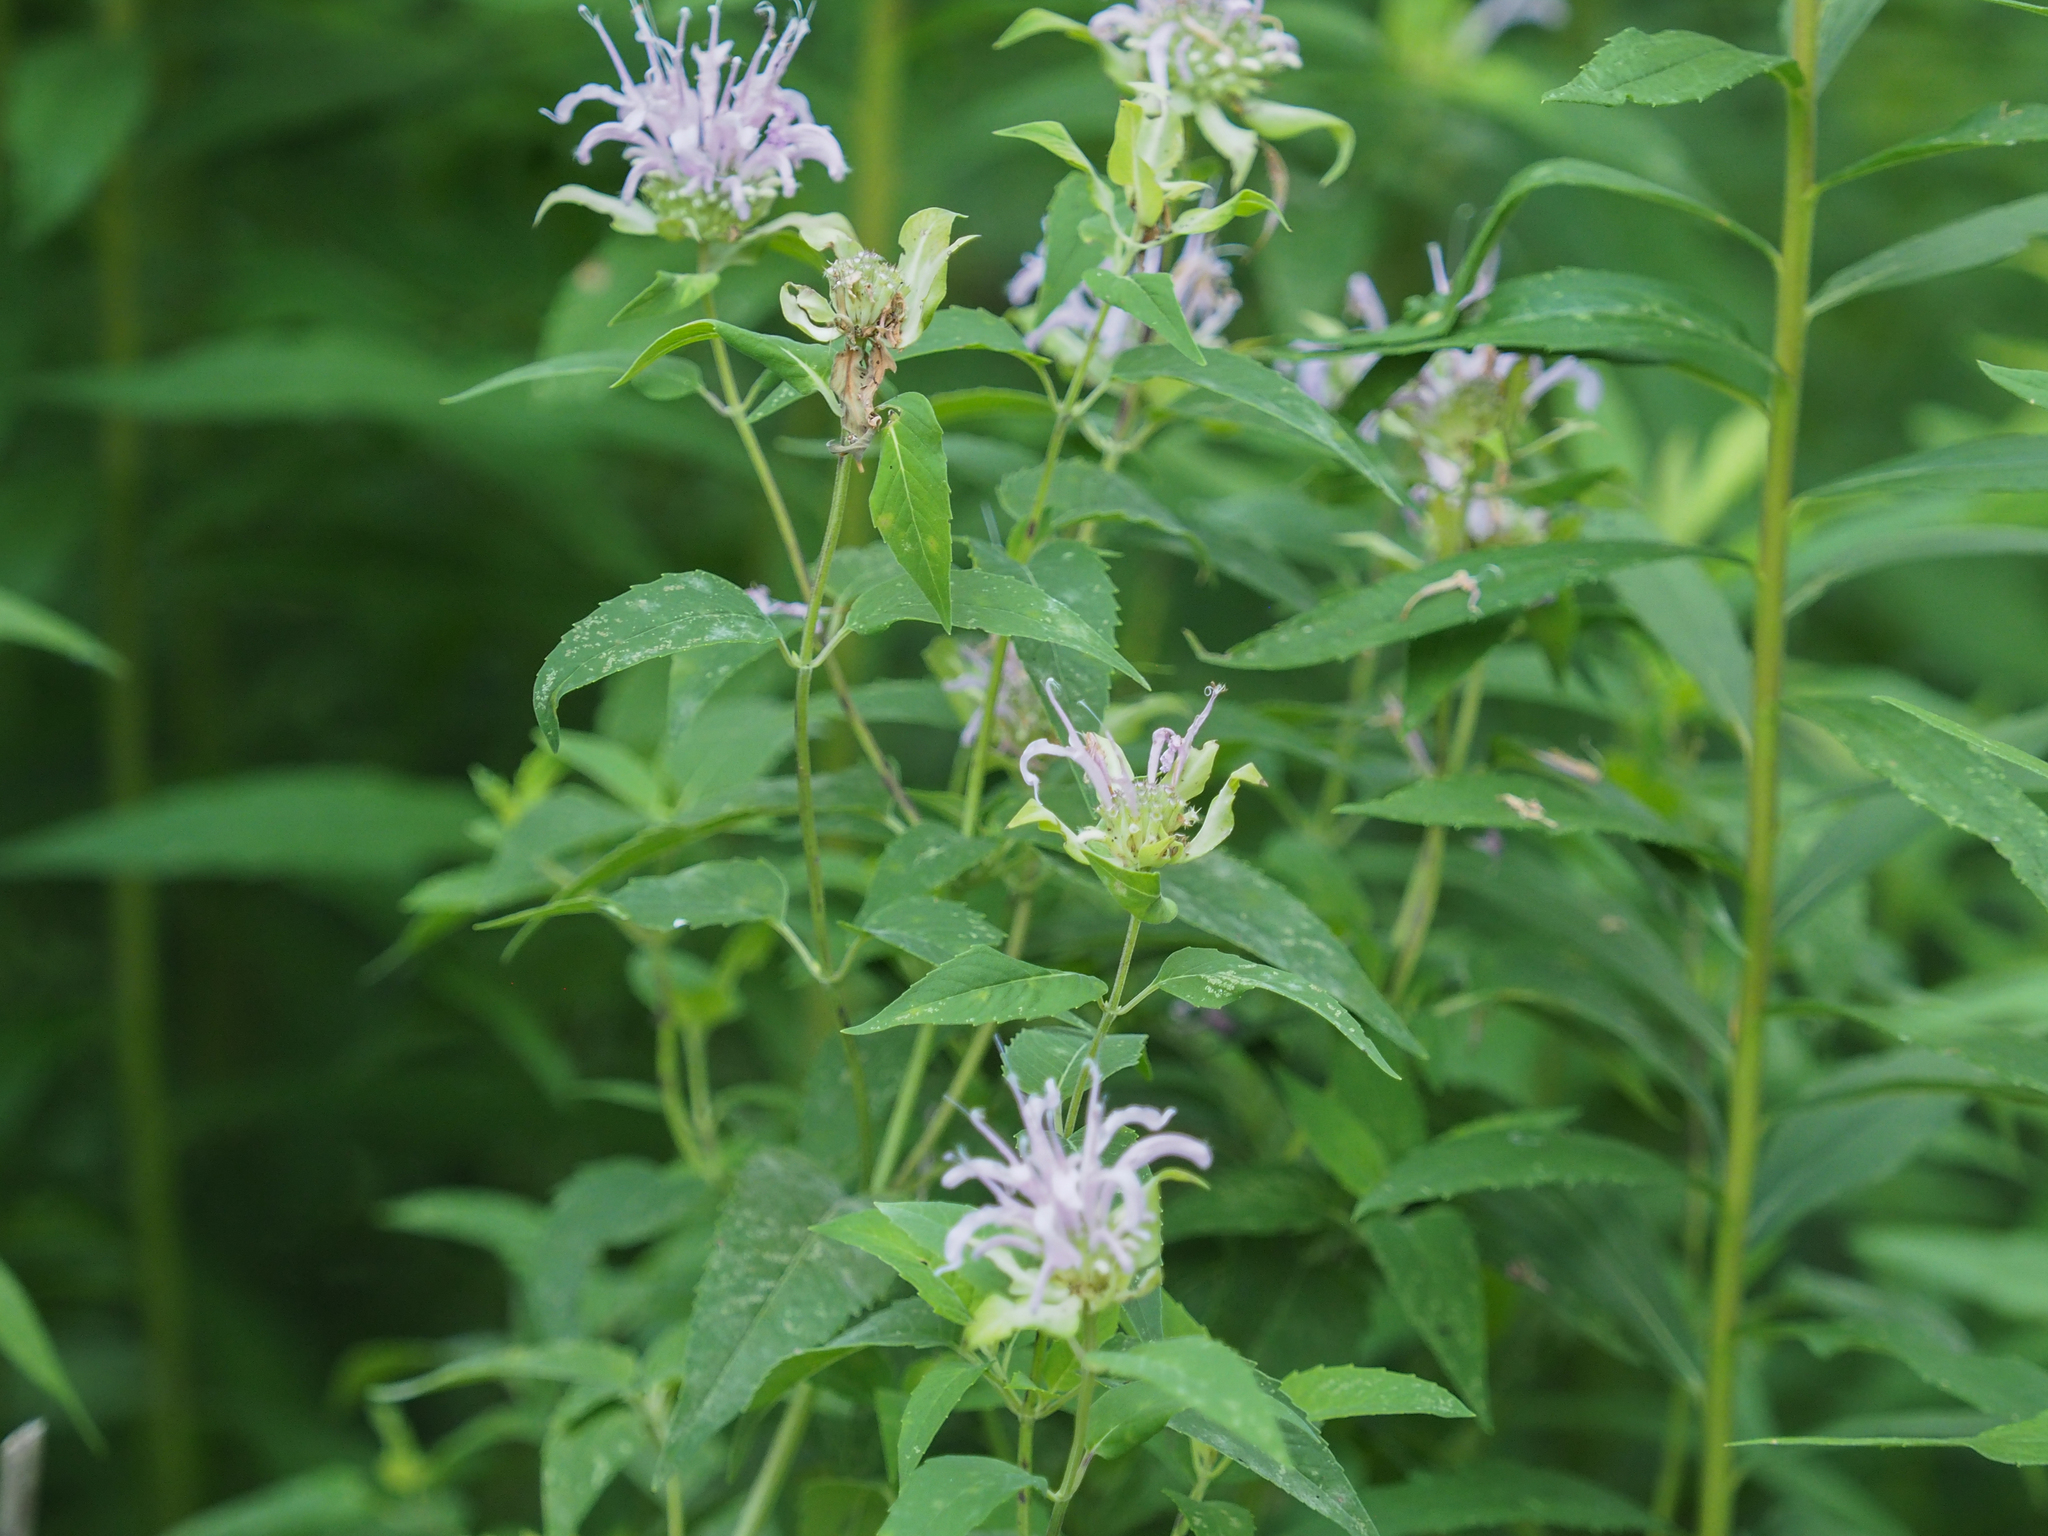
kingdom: Plantae
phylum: Tracheophyta
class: Magnoliopsida
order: Lamiales
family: Lamiaceae
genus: Monarda
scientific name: Monarda fistulosa
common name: Purple beebalm
